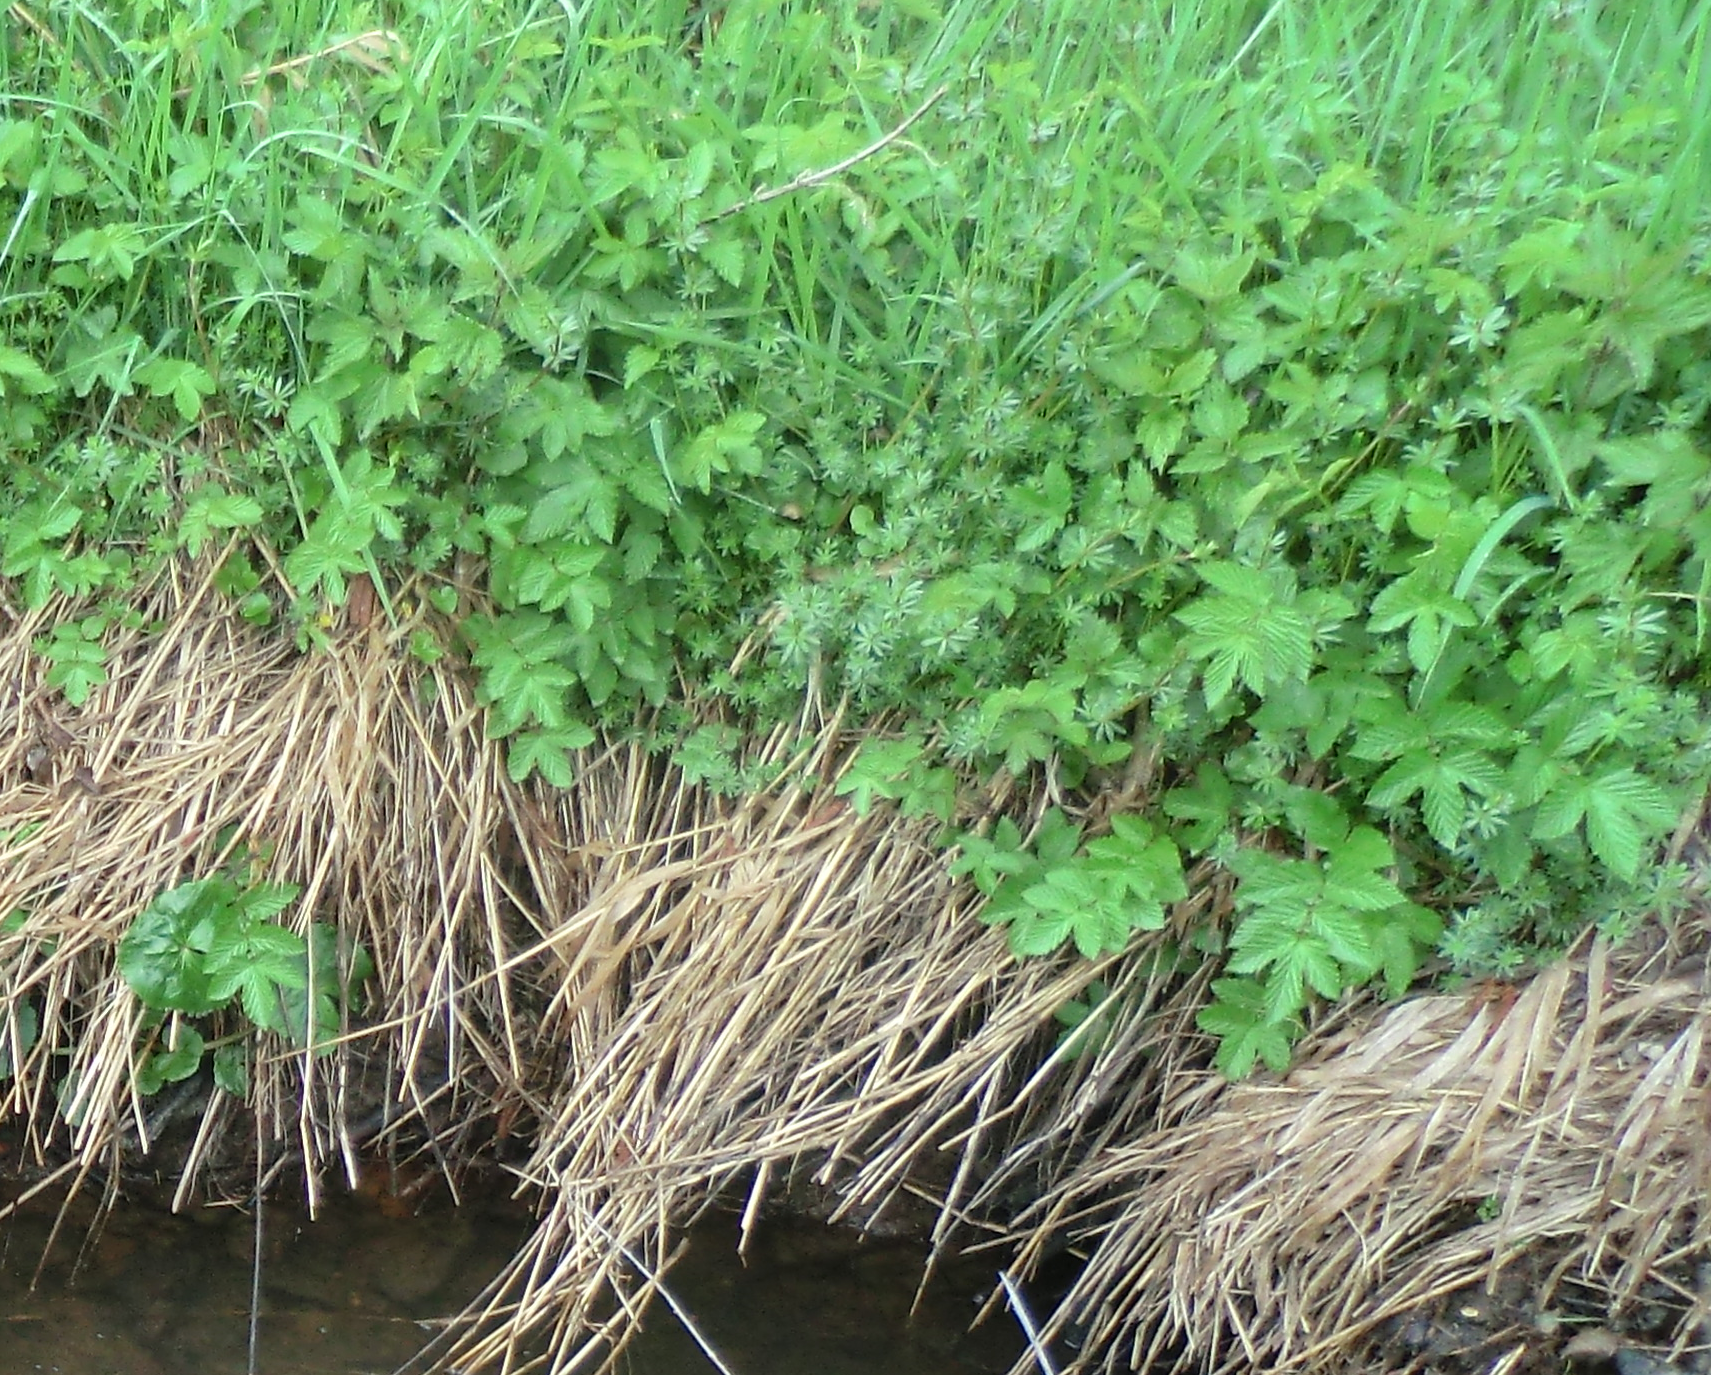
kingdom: Plantae
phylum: Tracheophyta
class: Magnoliopsida
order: Rosales
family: Rosaceae
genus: Filipendula
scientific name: Filipendula ulmaria
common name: Meadowsweet
